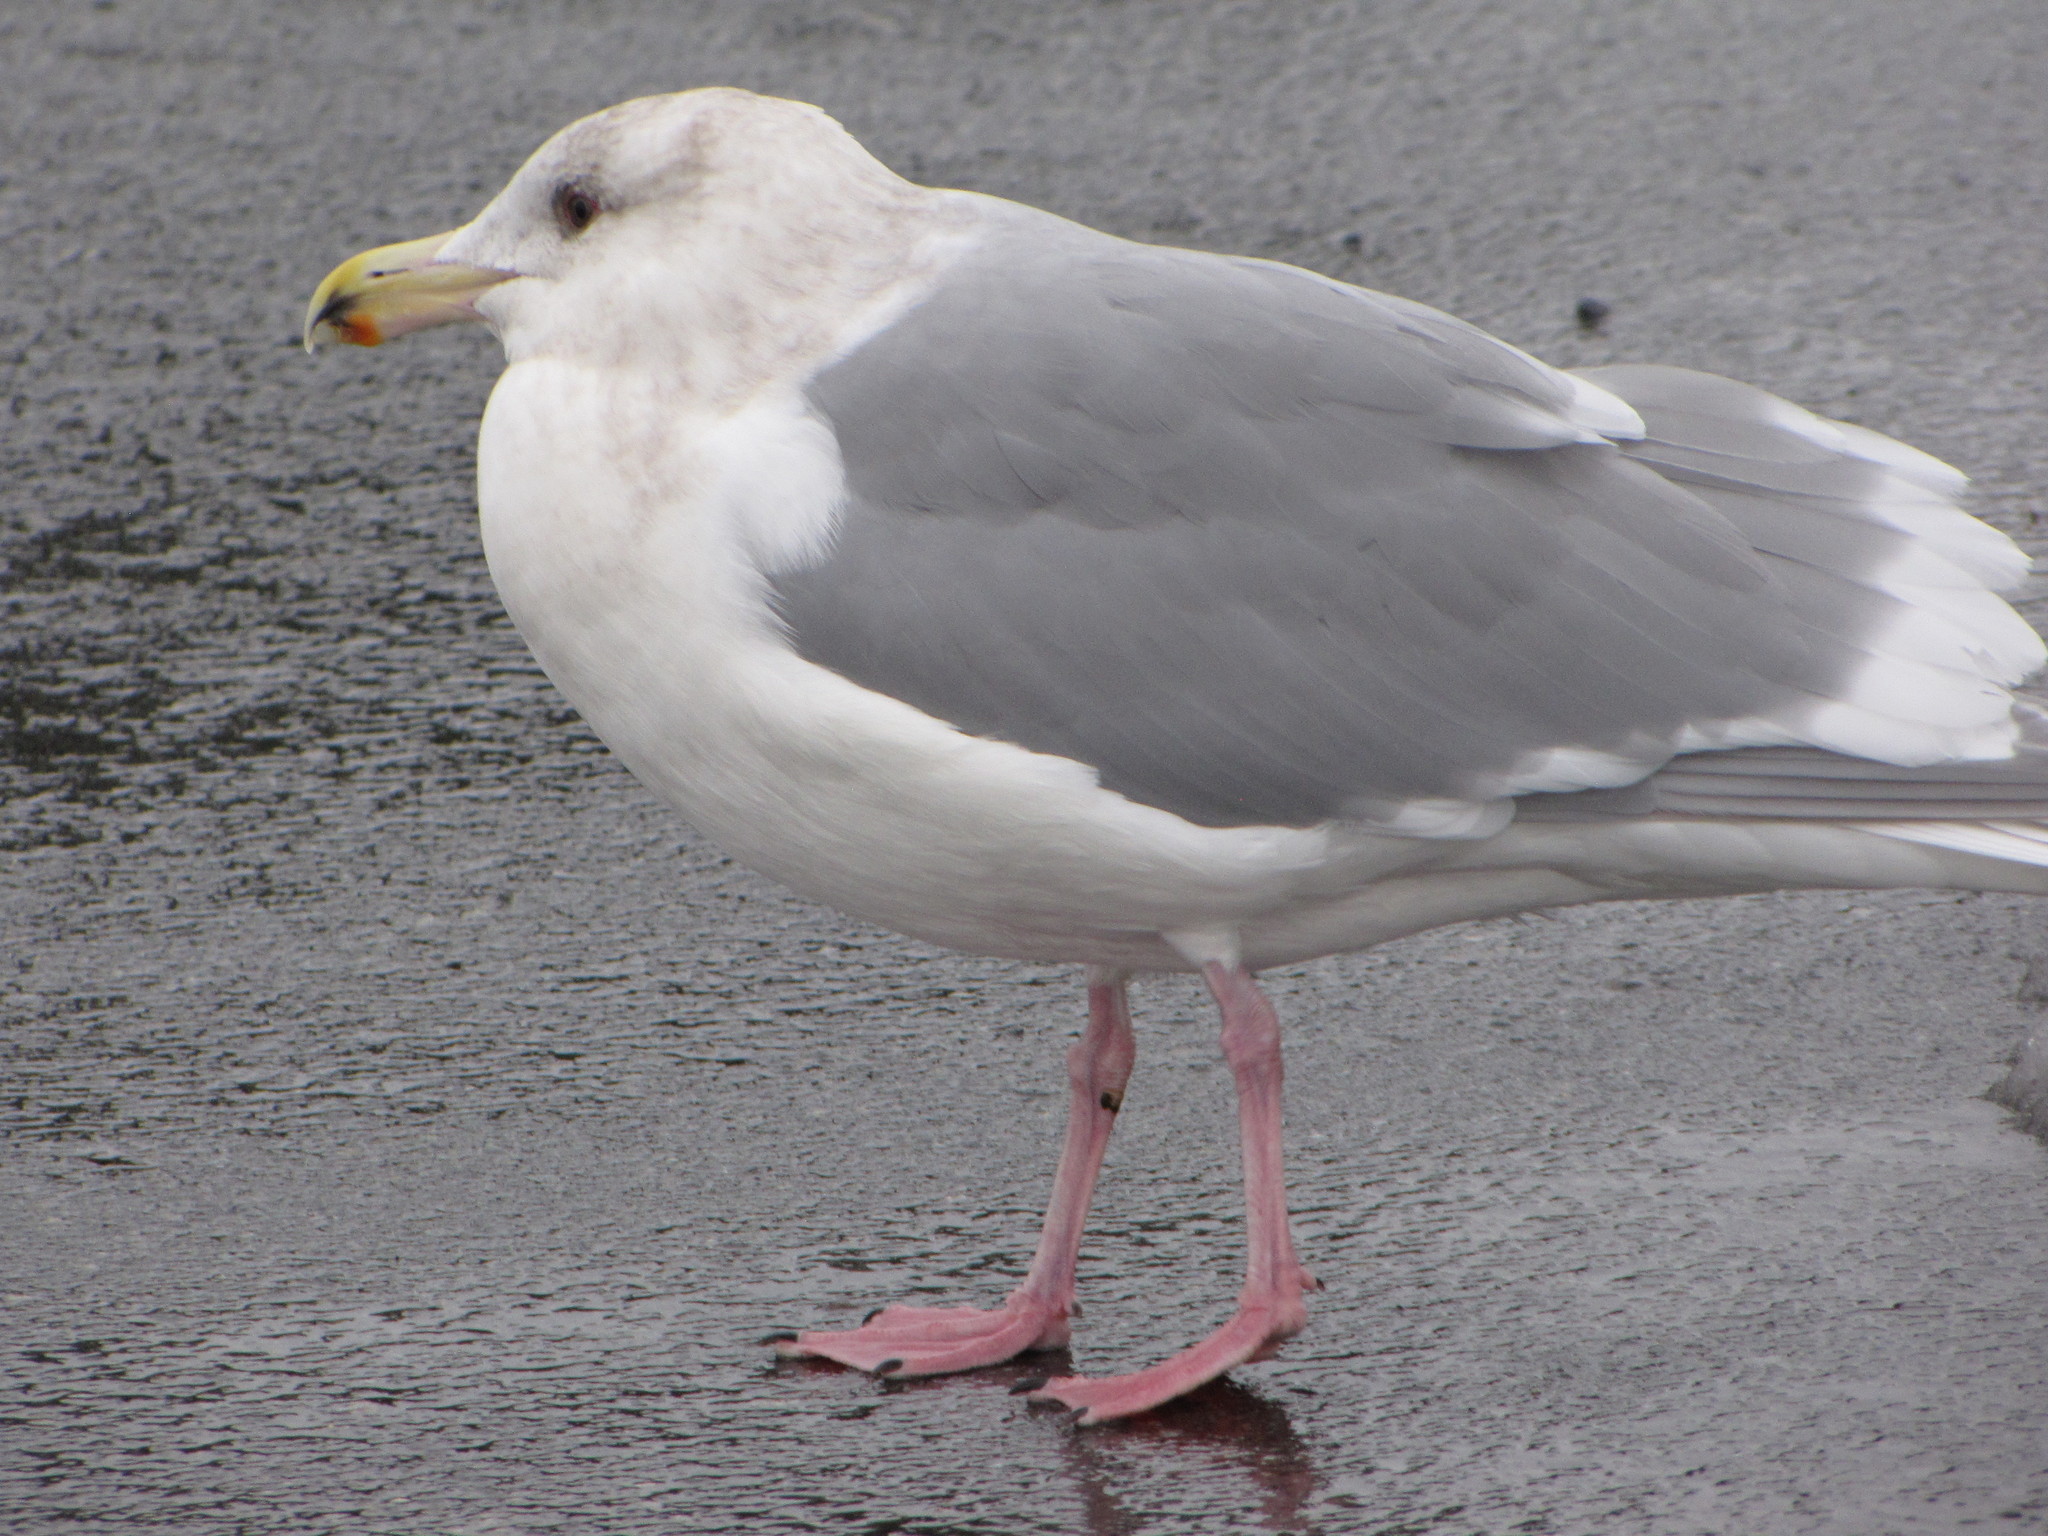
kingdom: Animalia
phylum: Chordata
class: Aves
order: Charadriiformes
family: Laridae
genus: Larus
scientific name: Larus glaucescens
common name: Glaucous-winged gull
